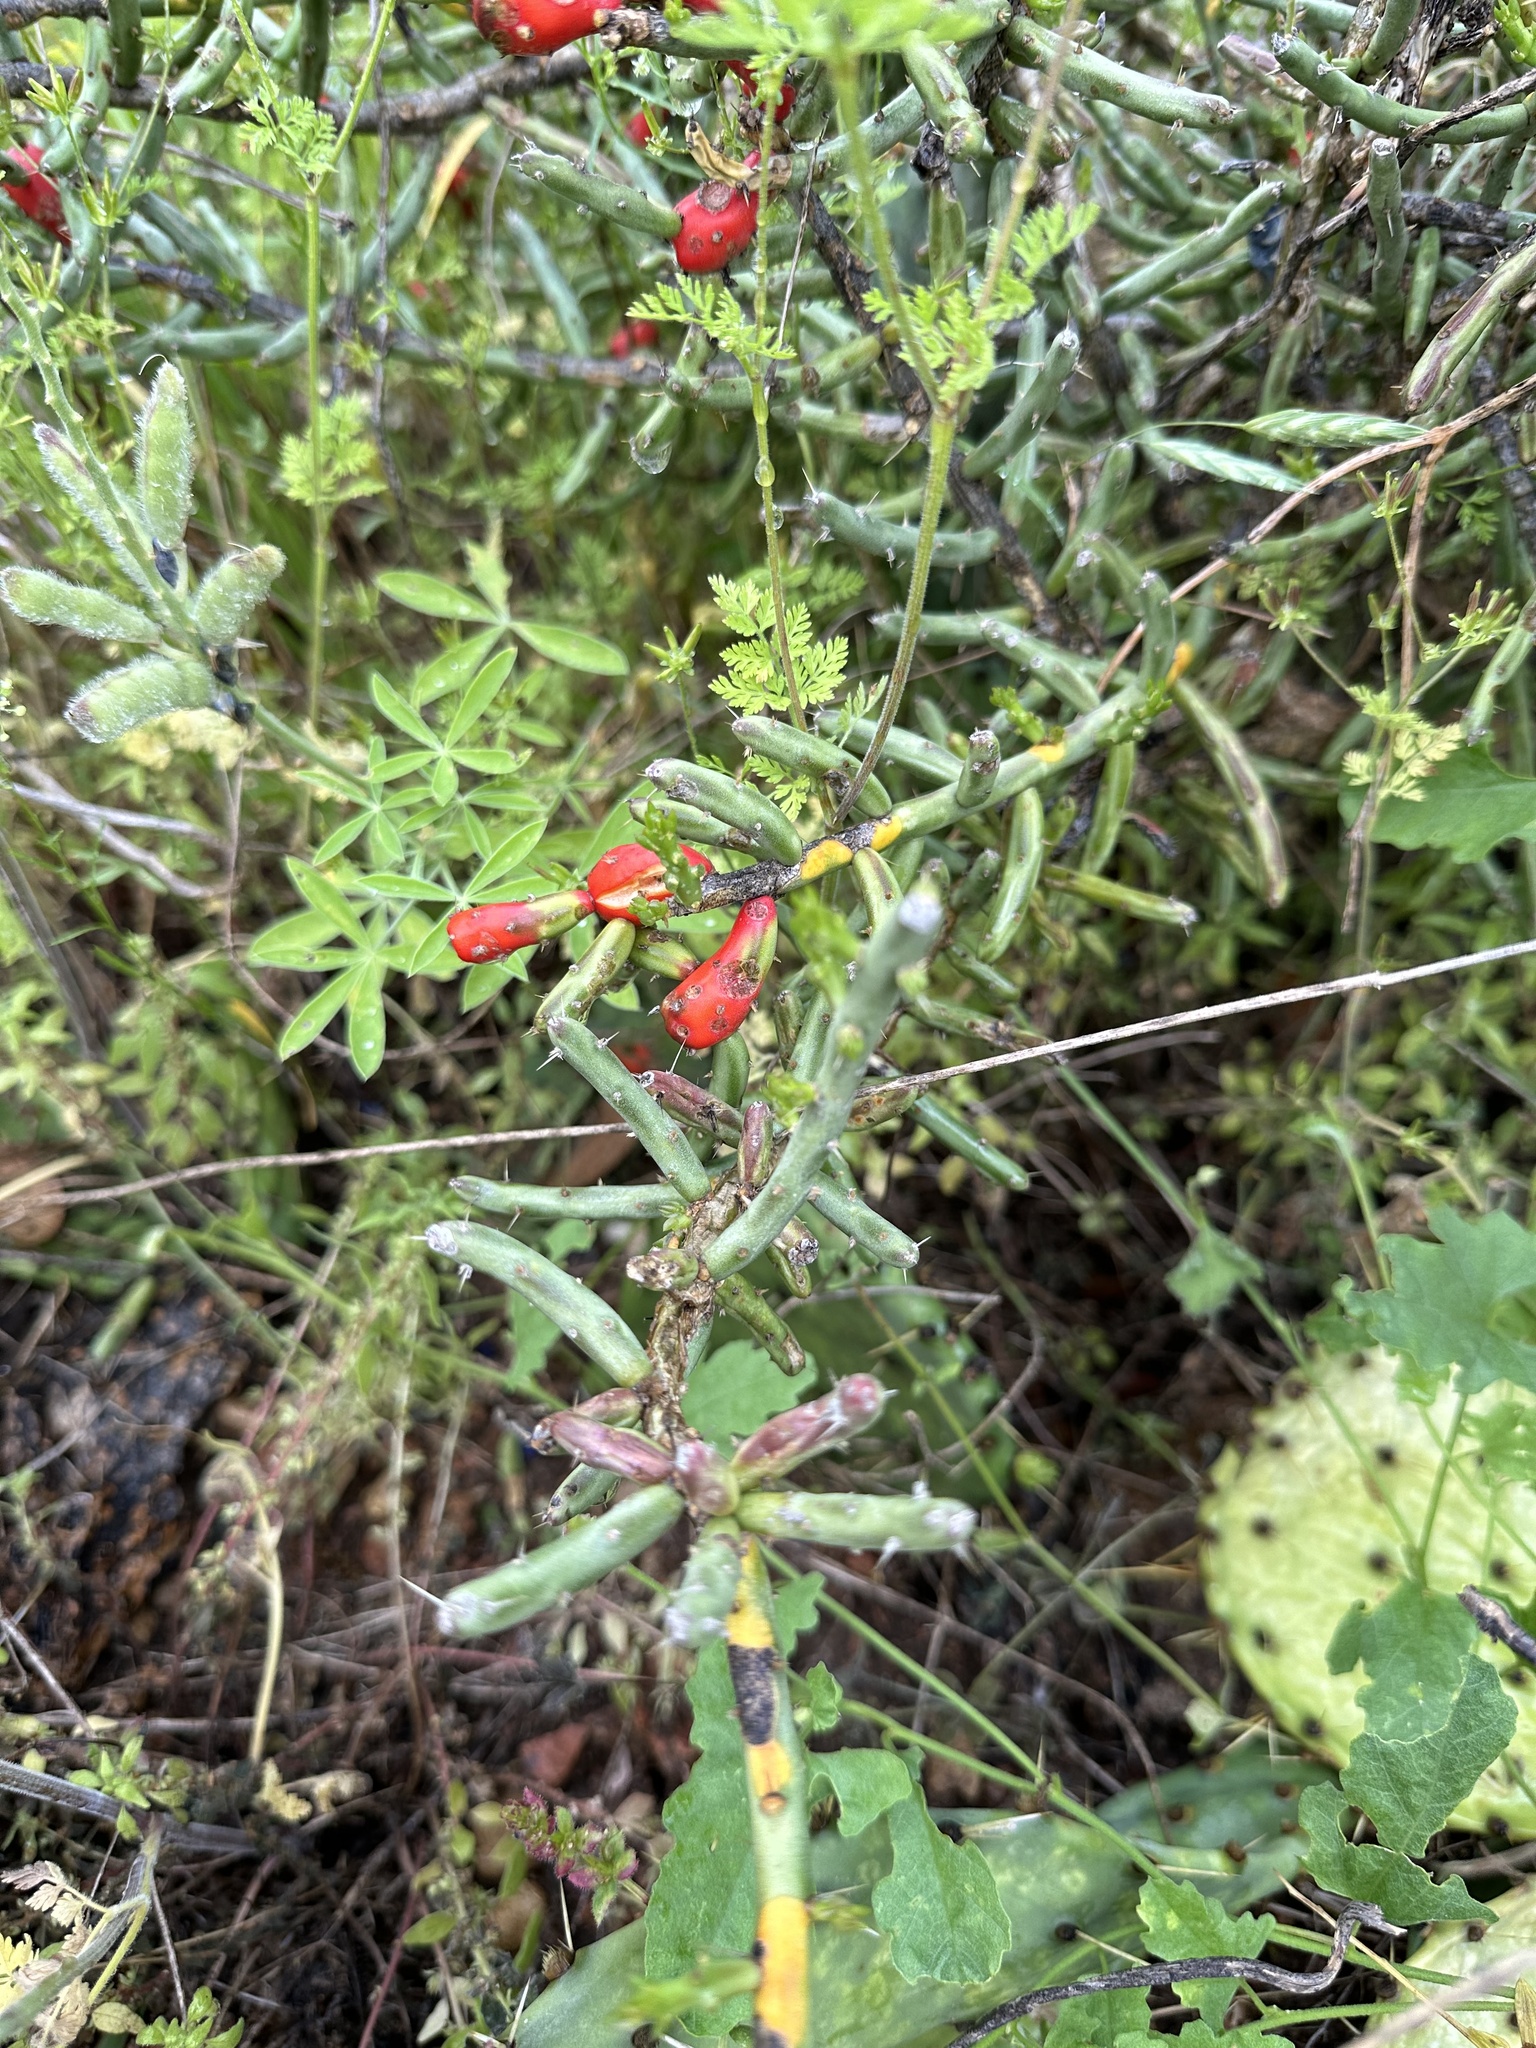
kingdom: Plantae
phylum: Tracheophyta
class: Magnoliopsida
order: Caryophyllales
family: Cactaceae
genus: Cylindropuntia
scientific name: Cylindropuntia leptocaulis
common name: Christmas cactus
